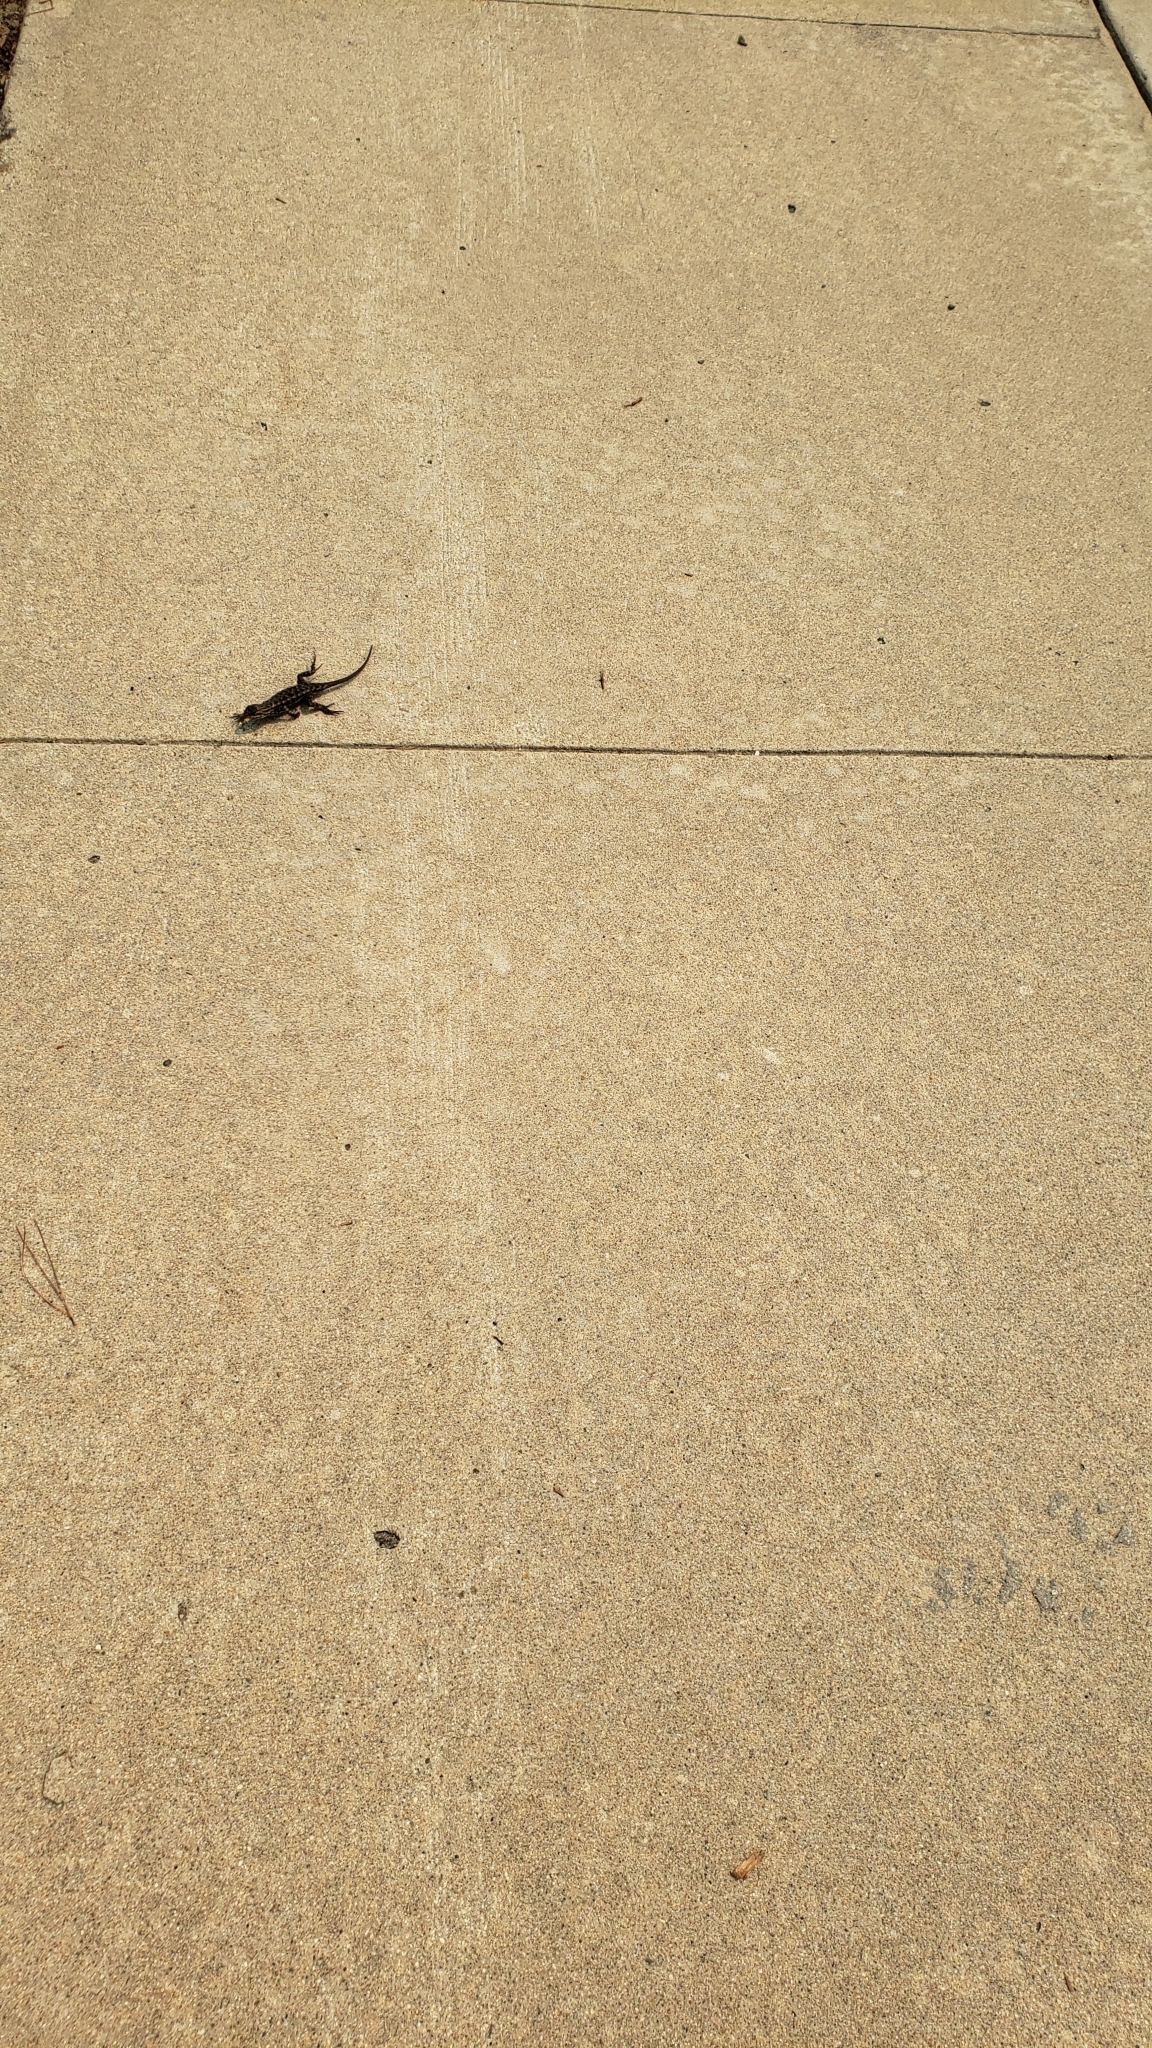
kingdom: Animalia
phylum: Chordata
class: Squamata
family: Phrynosomatidae
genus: Sceloporus
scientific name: Sceloporus occidentalis
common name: Western fence lizard
